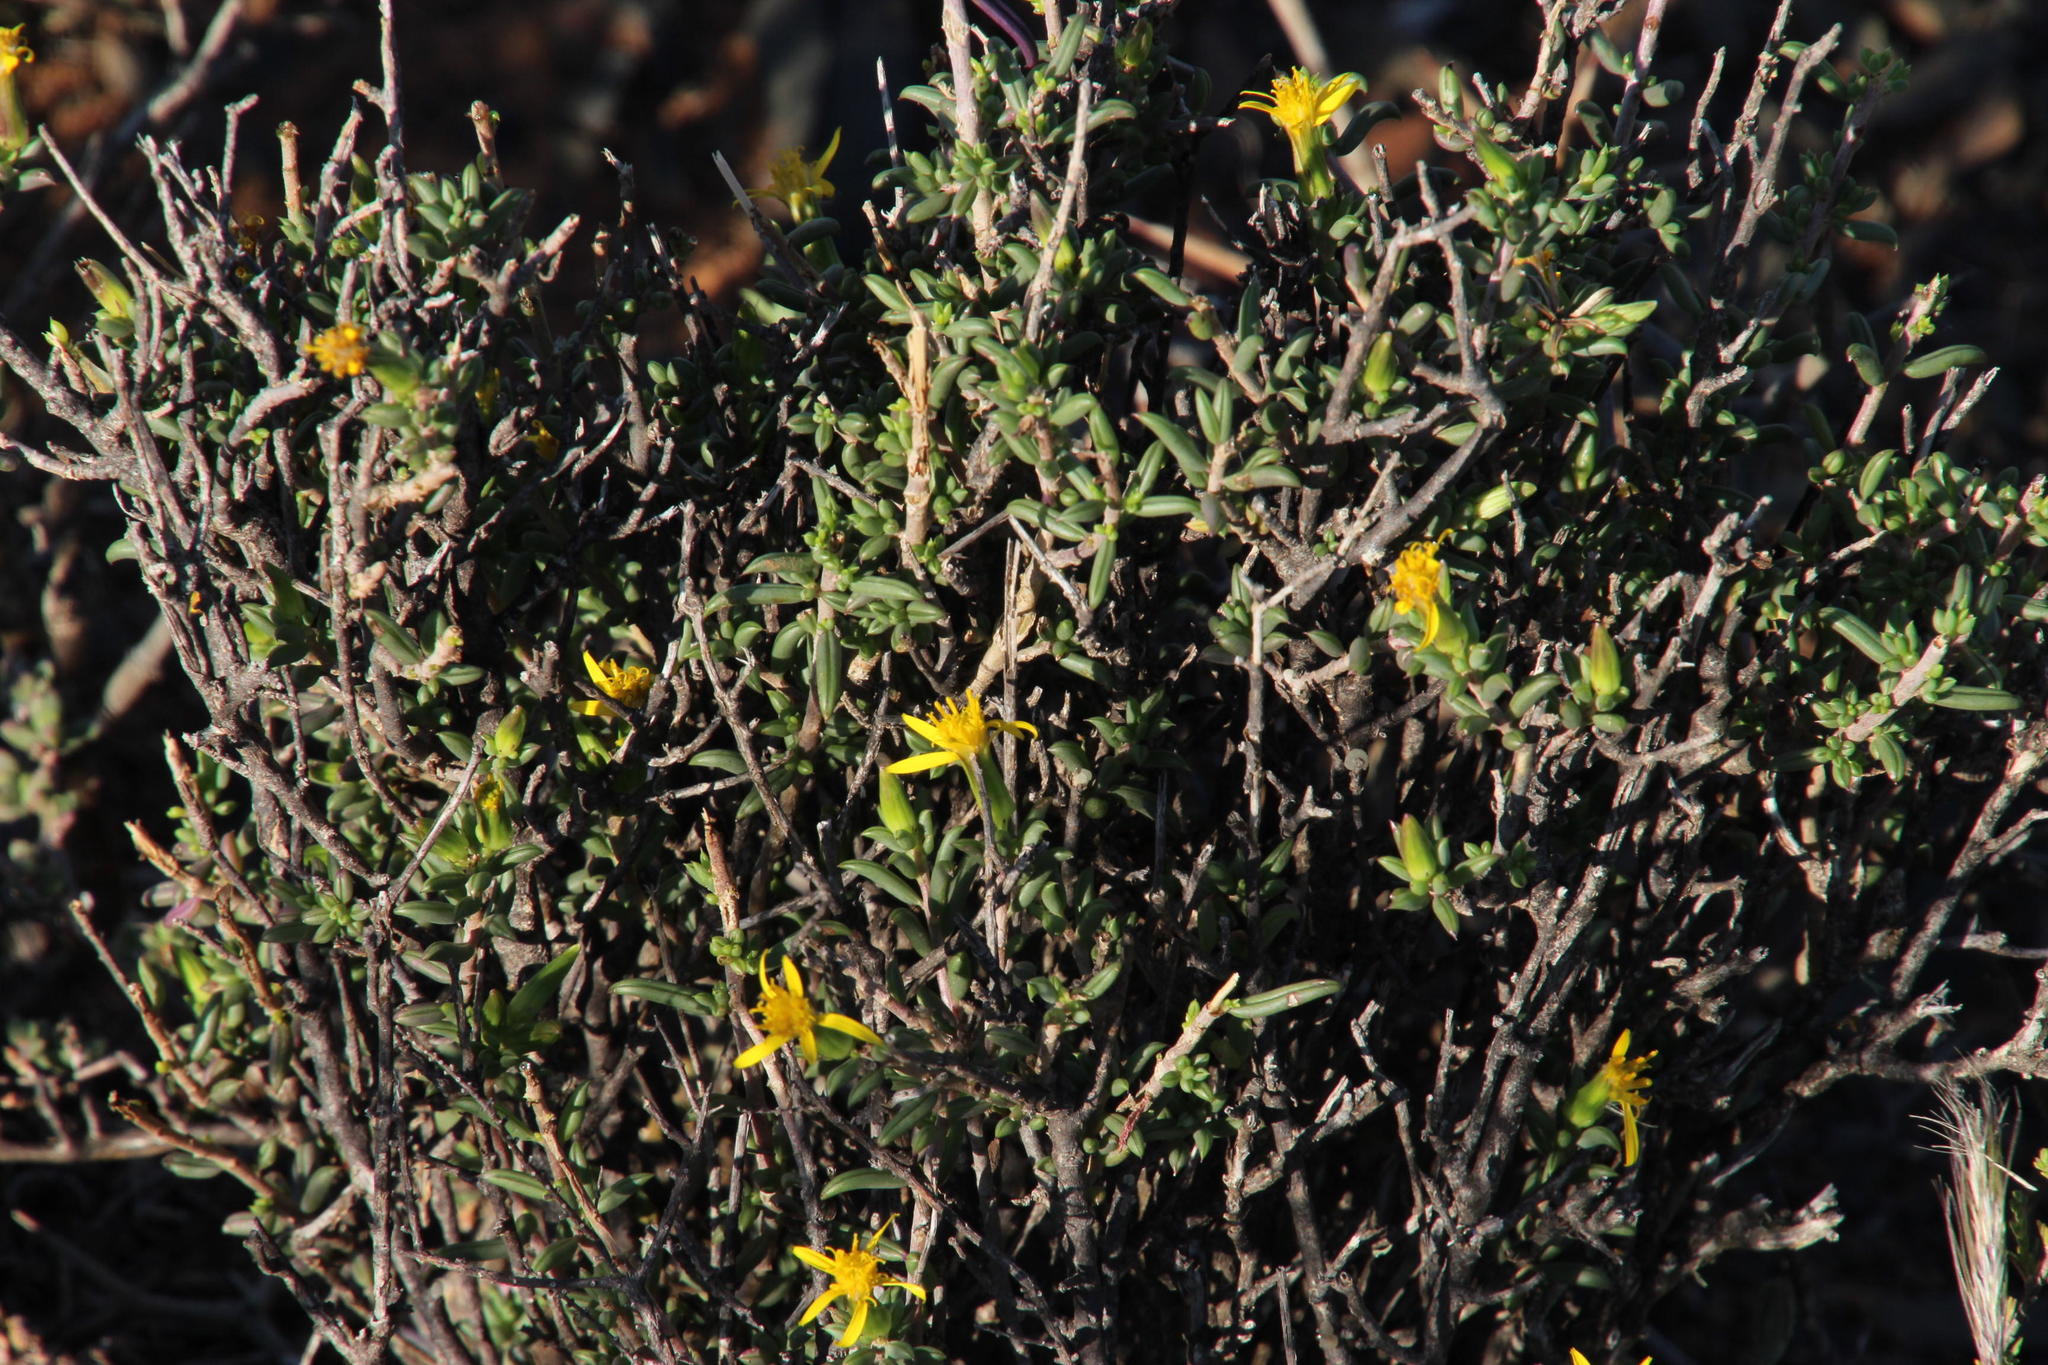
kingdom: Plantae
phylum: Tracheophyta
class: Magnoliopsida
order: Asterales
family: Asteraceae
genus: Senecio
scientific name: Senecio acutifolius
